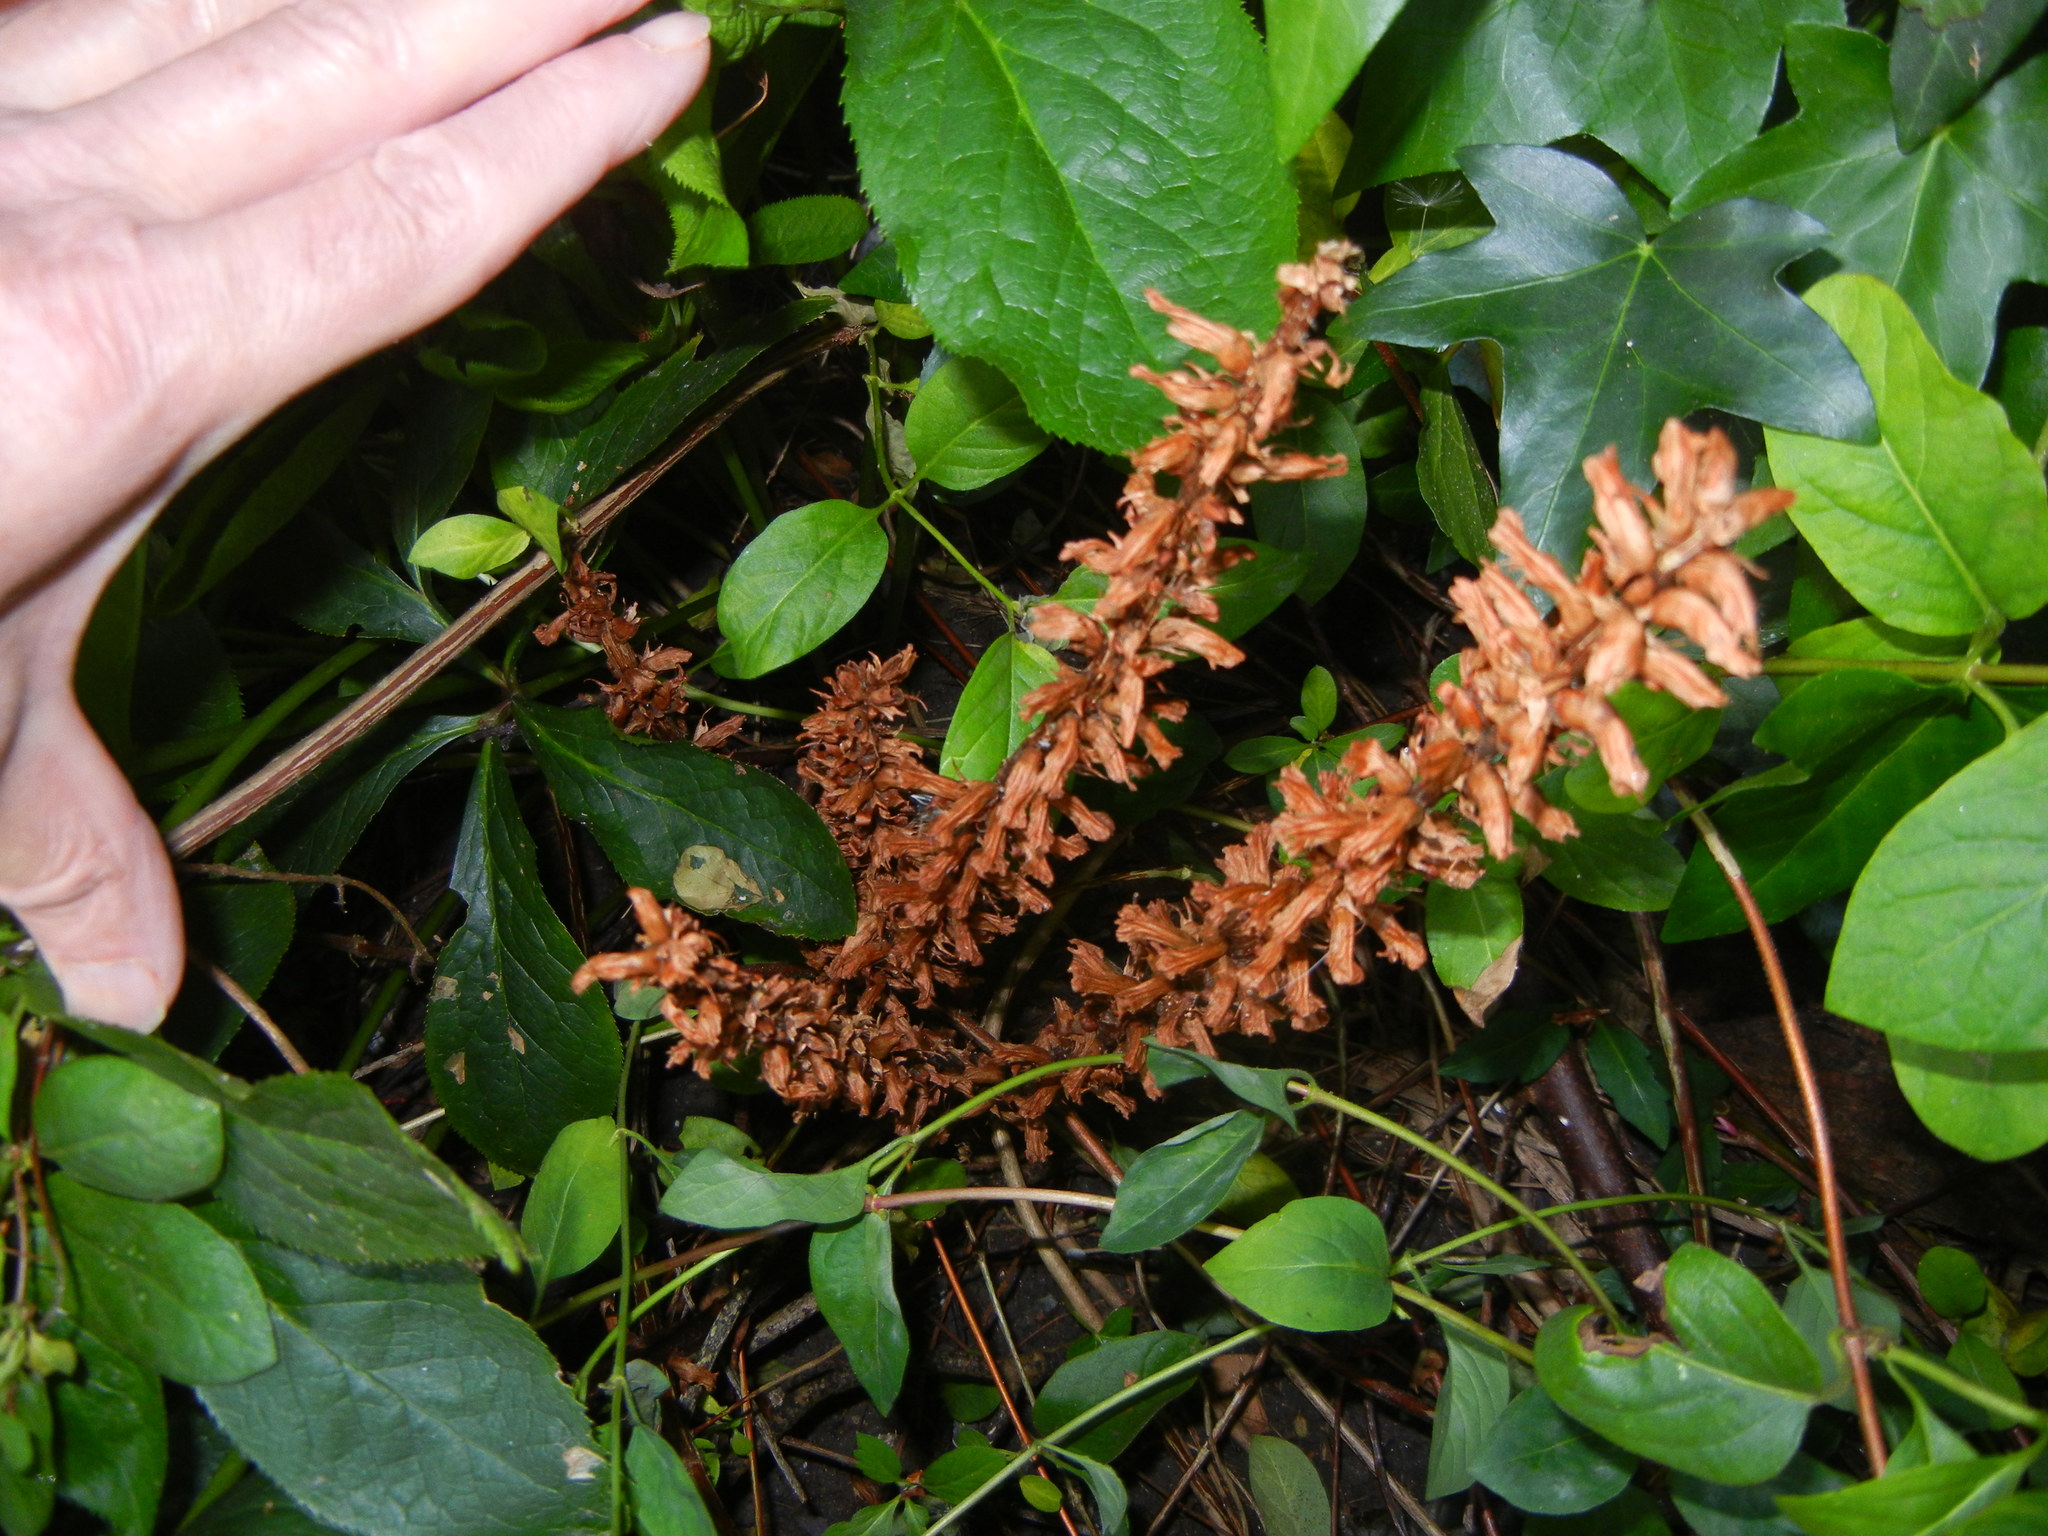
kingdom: Plantae
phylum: Tracheophyta
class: Magnoliopsida
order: Lamiales
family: Orobanchaceae
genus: Orobanche
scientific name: Orobanche hederae
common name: Ivy broomrape
